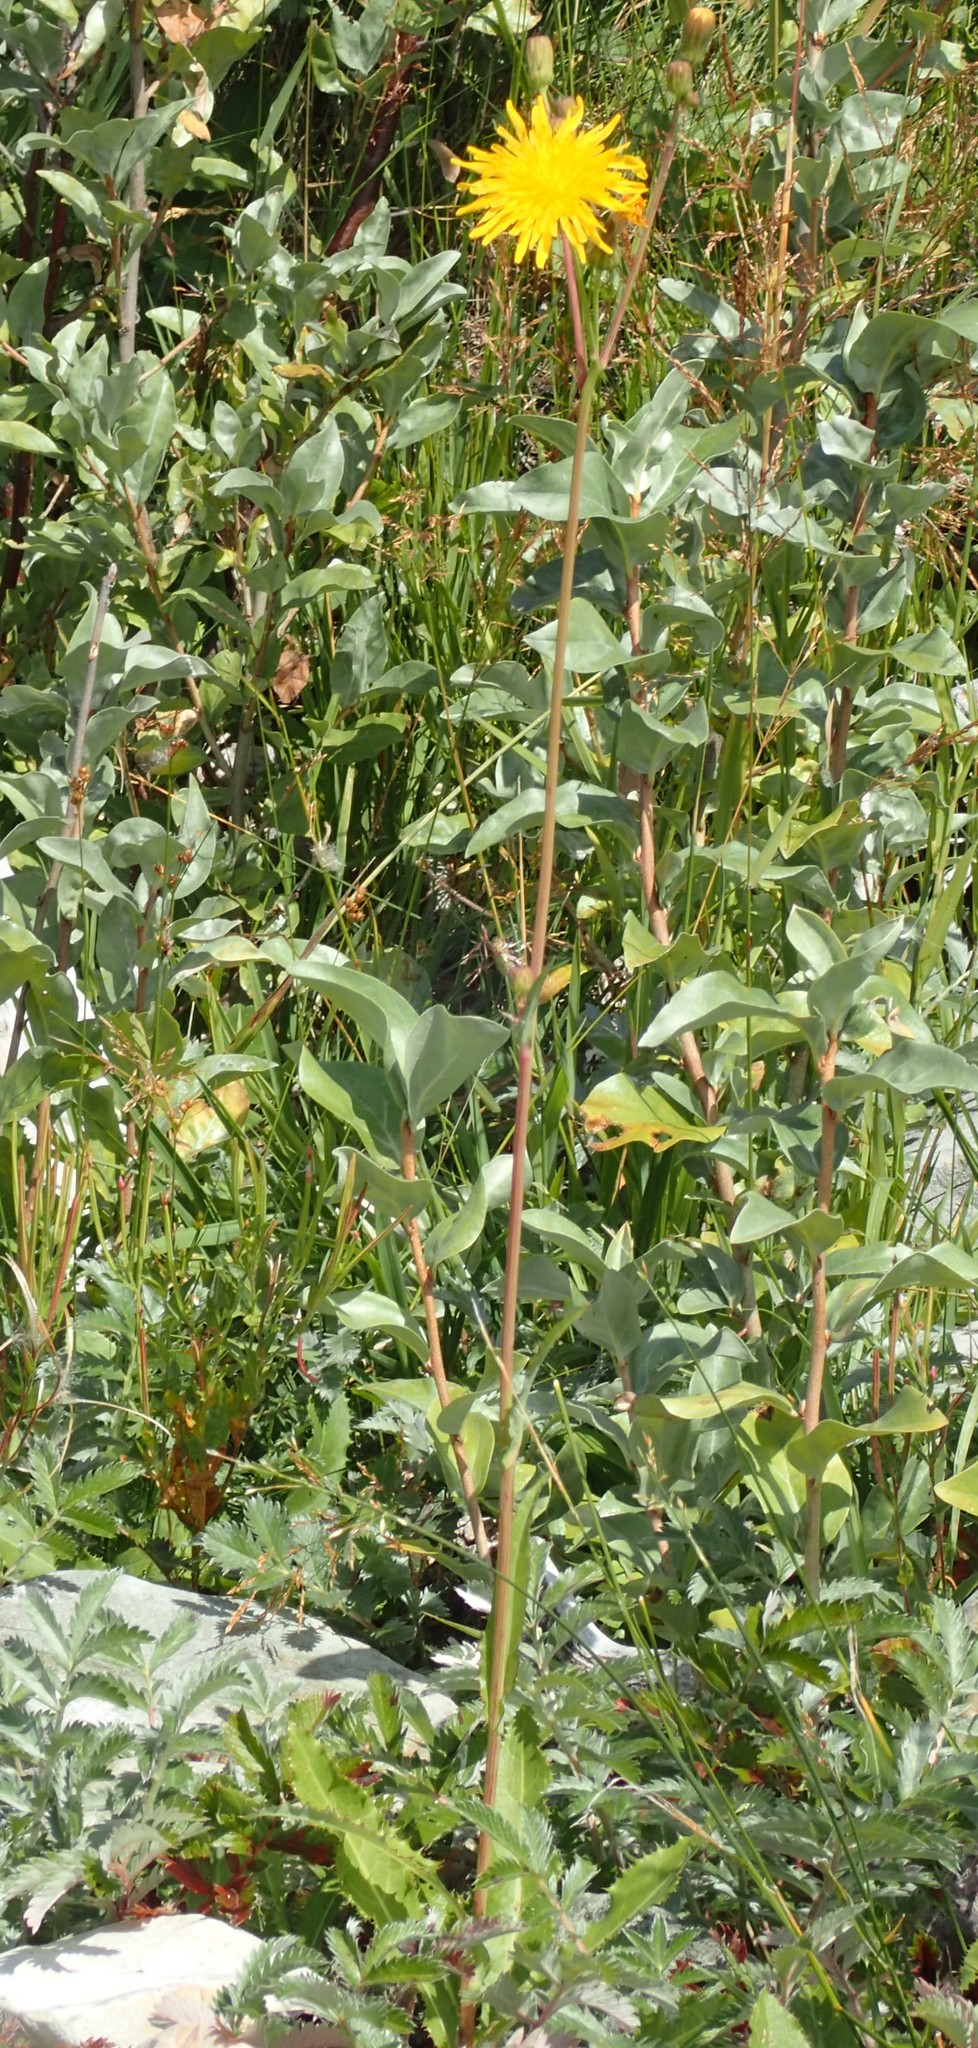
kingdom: Plantae
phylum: Tracheophyta
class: Magnoliopsida
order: Asterales
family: Asteraceae
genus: Sonchus
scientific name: Sonchus arvensis
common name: Perennial sow-thistle
